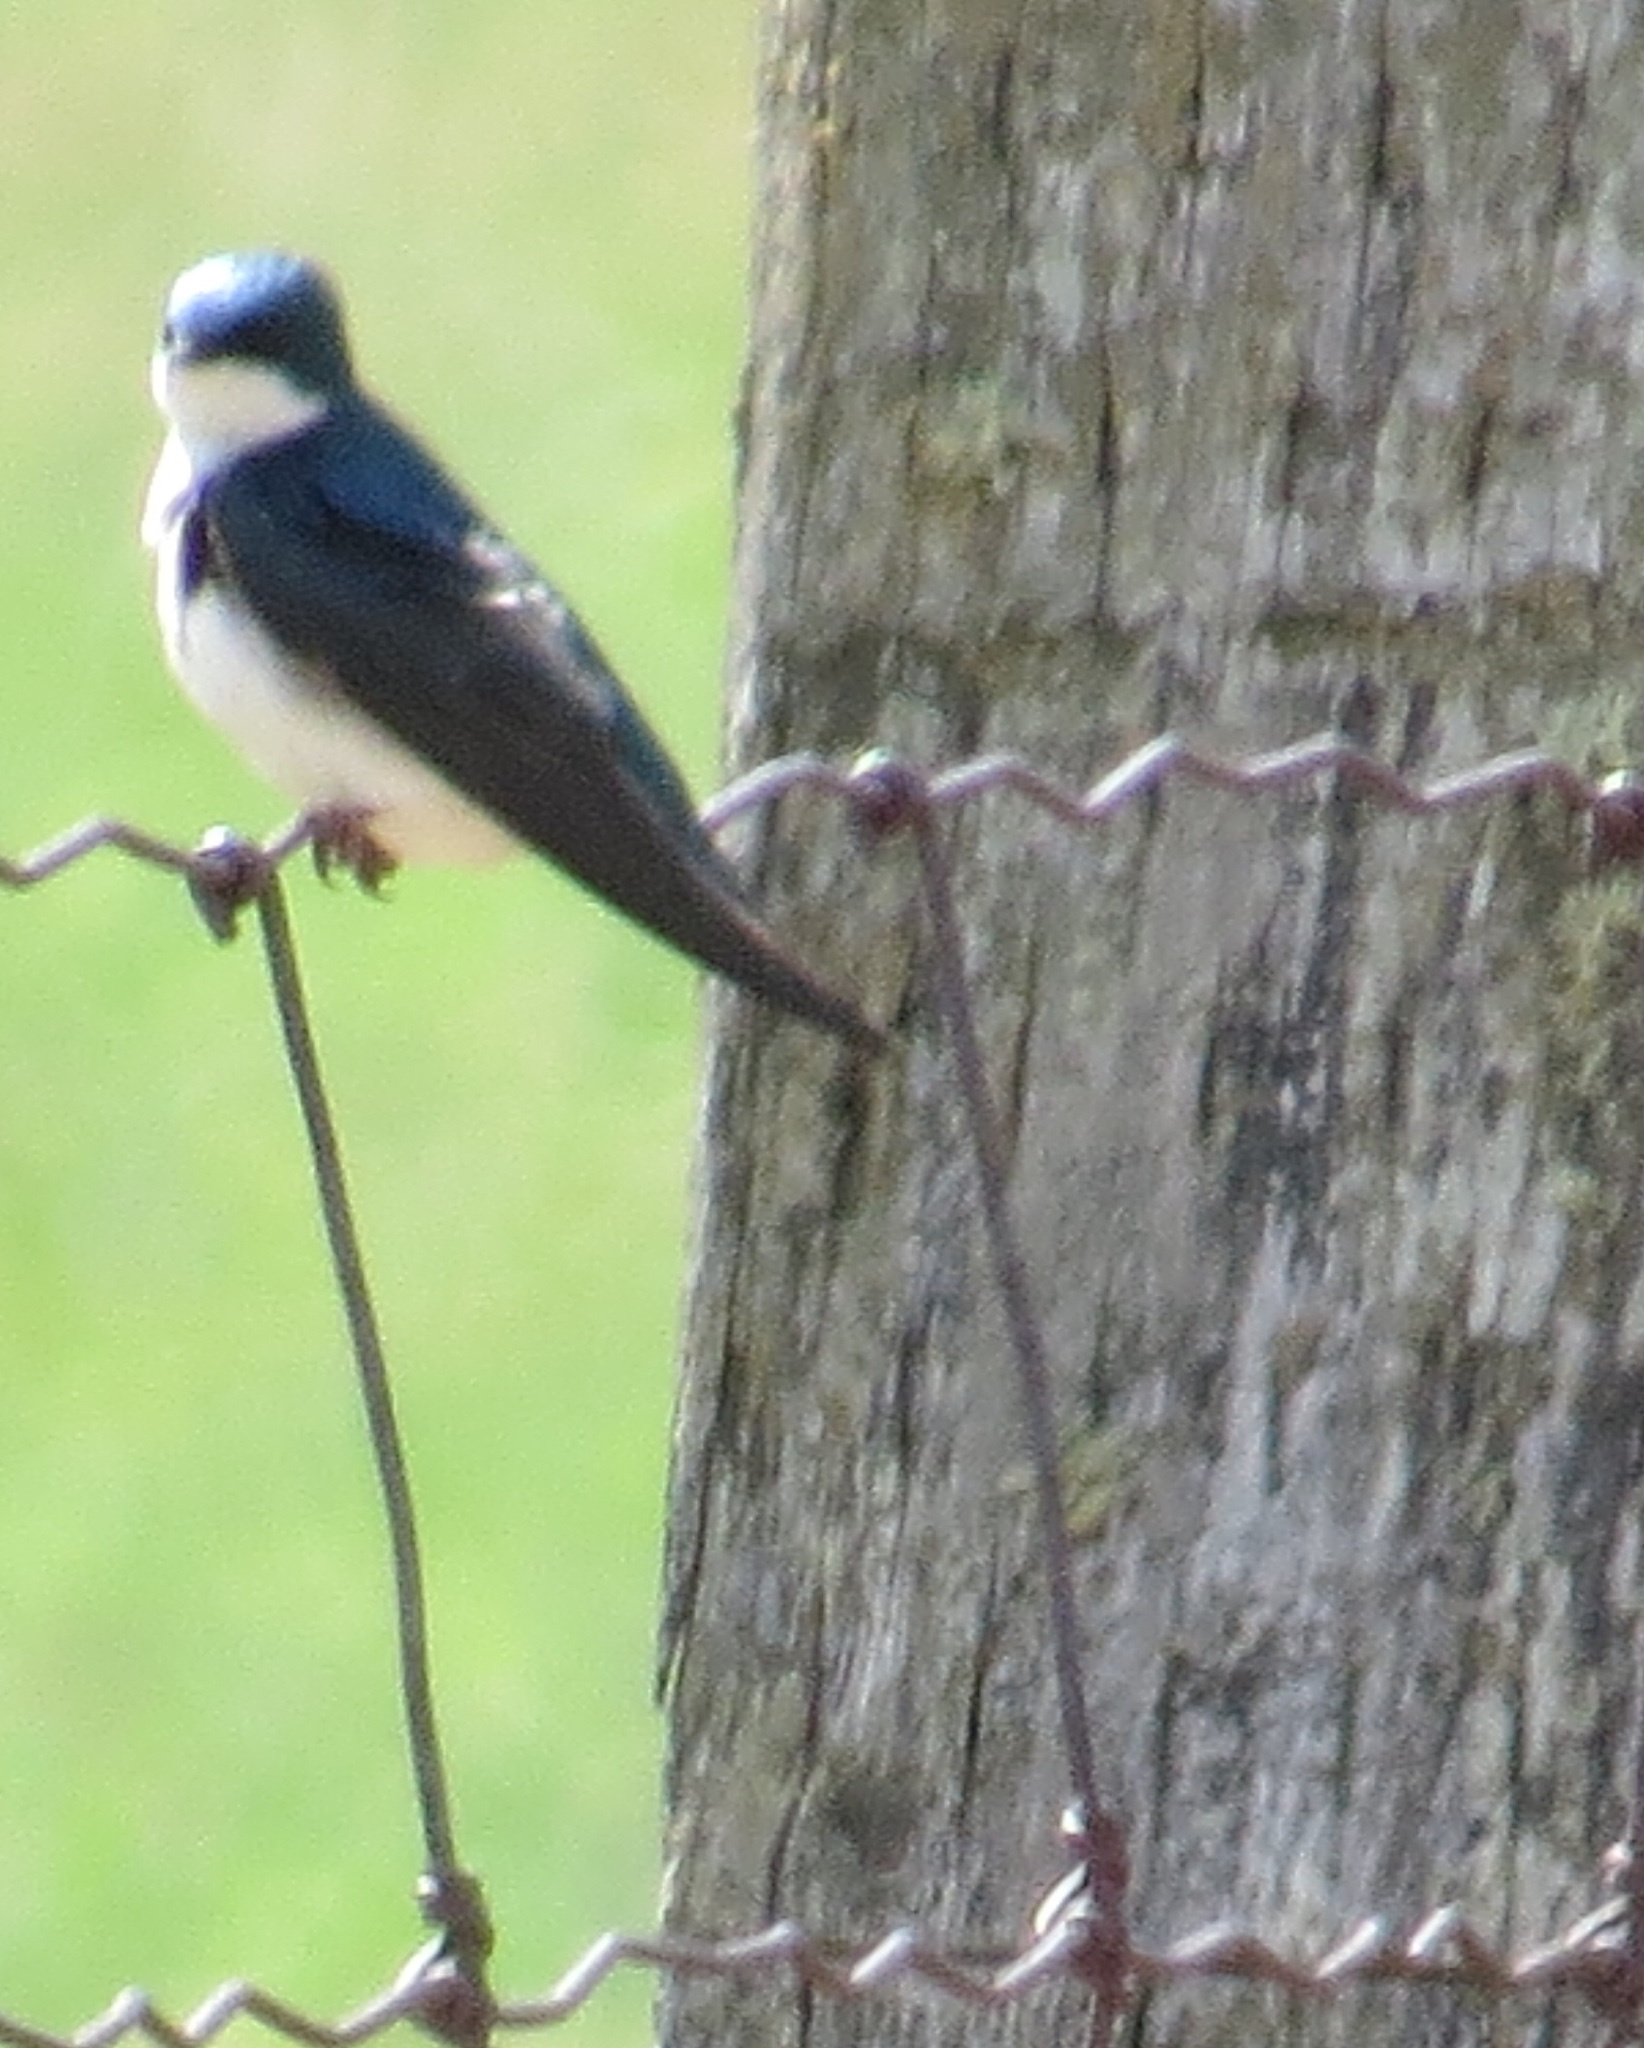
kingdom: Animalia
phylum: Chordata
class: Aves
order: Passeriformes
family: Hirundinidae
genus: Tachycineta
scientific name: Tachycineta bicolor
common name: Tree swallow
